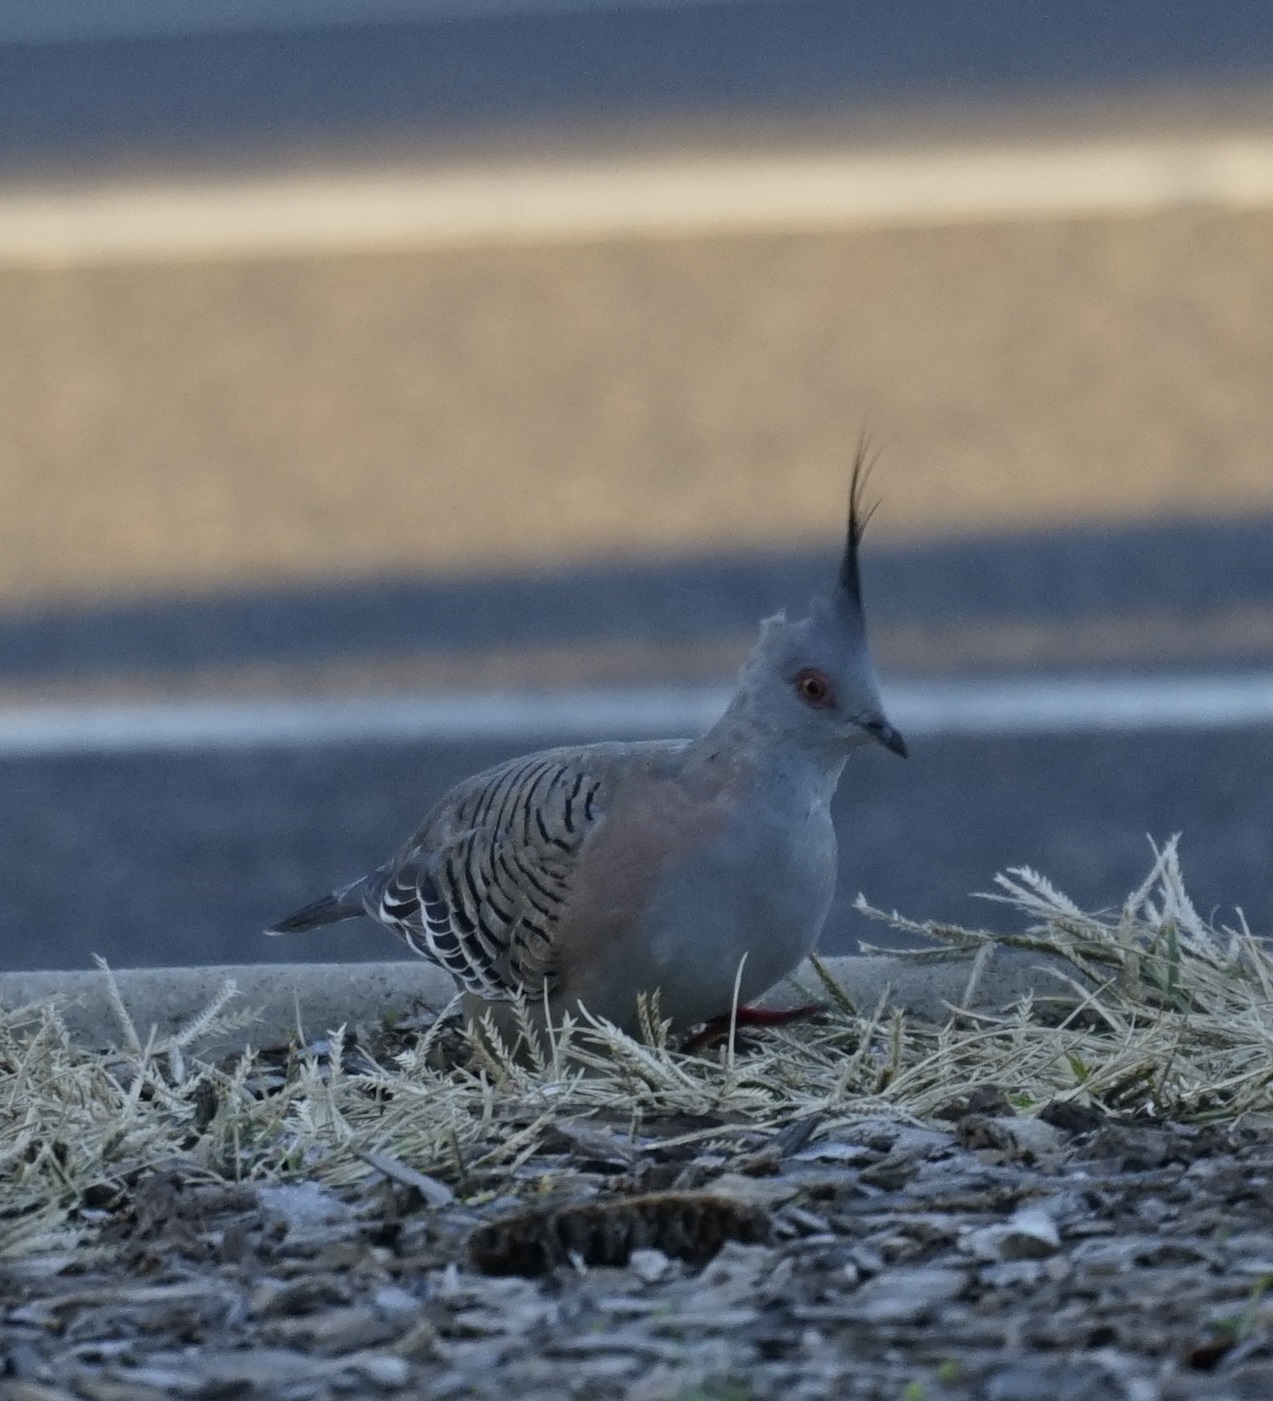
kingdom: Animalia
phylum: Chordata
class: Aves
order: Columbiformes
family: Columbidae
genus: Ocyphaps
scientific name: Ocyphaps lophotes
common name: Crested pigeon
